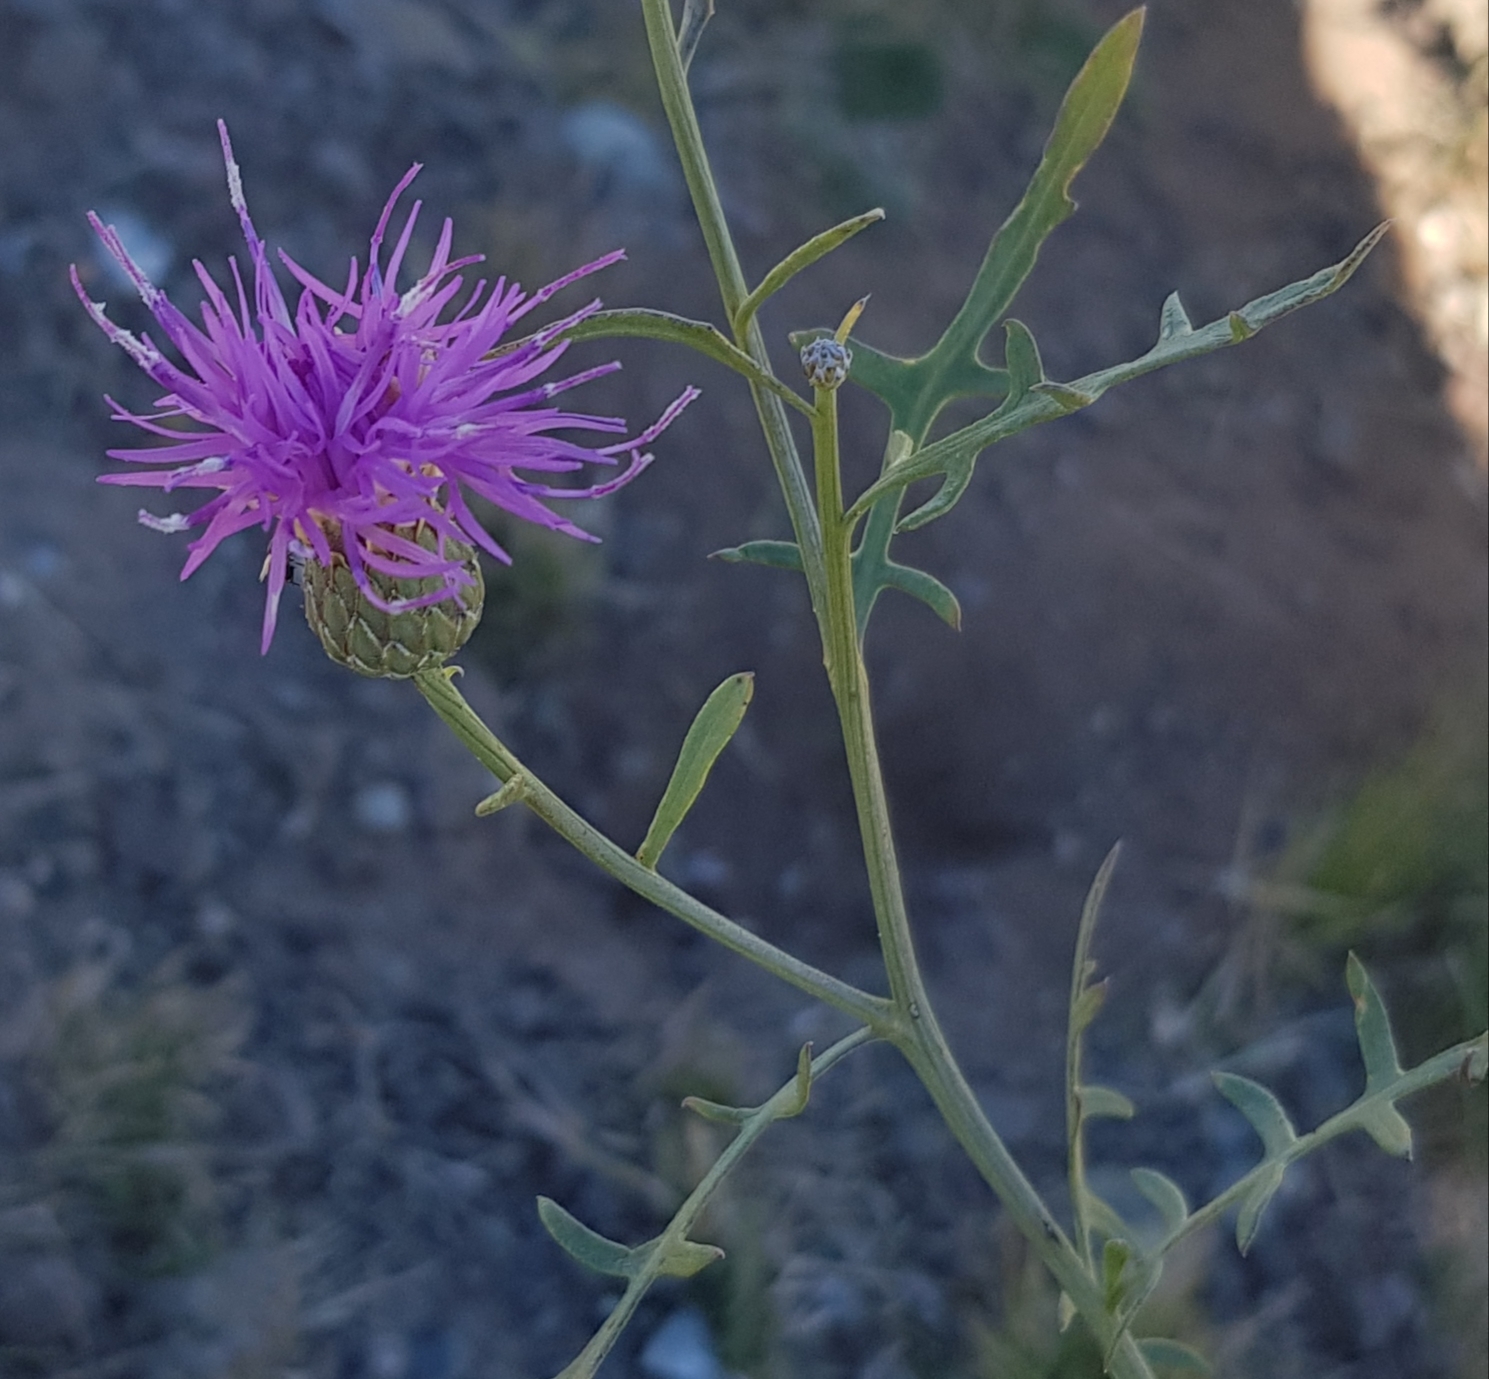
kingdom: Plantae
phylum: Tracheophyta
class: Magnoliopsida
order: Asterales
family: Asteraceae
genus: Klasea
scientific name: Klasea centauroides
